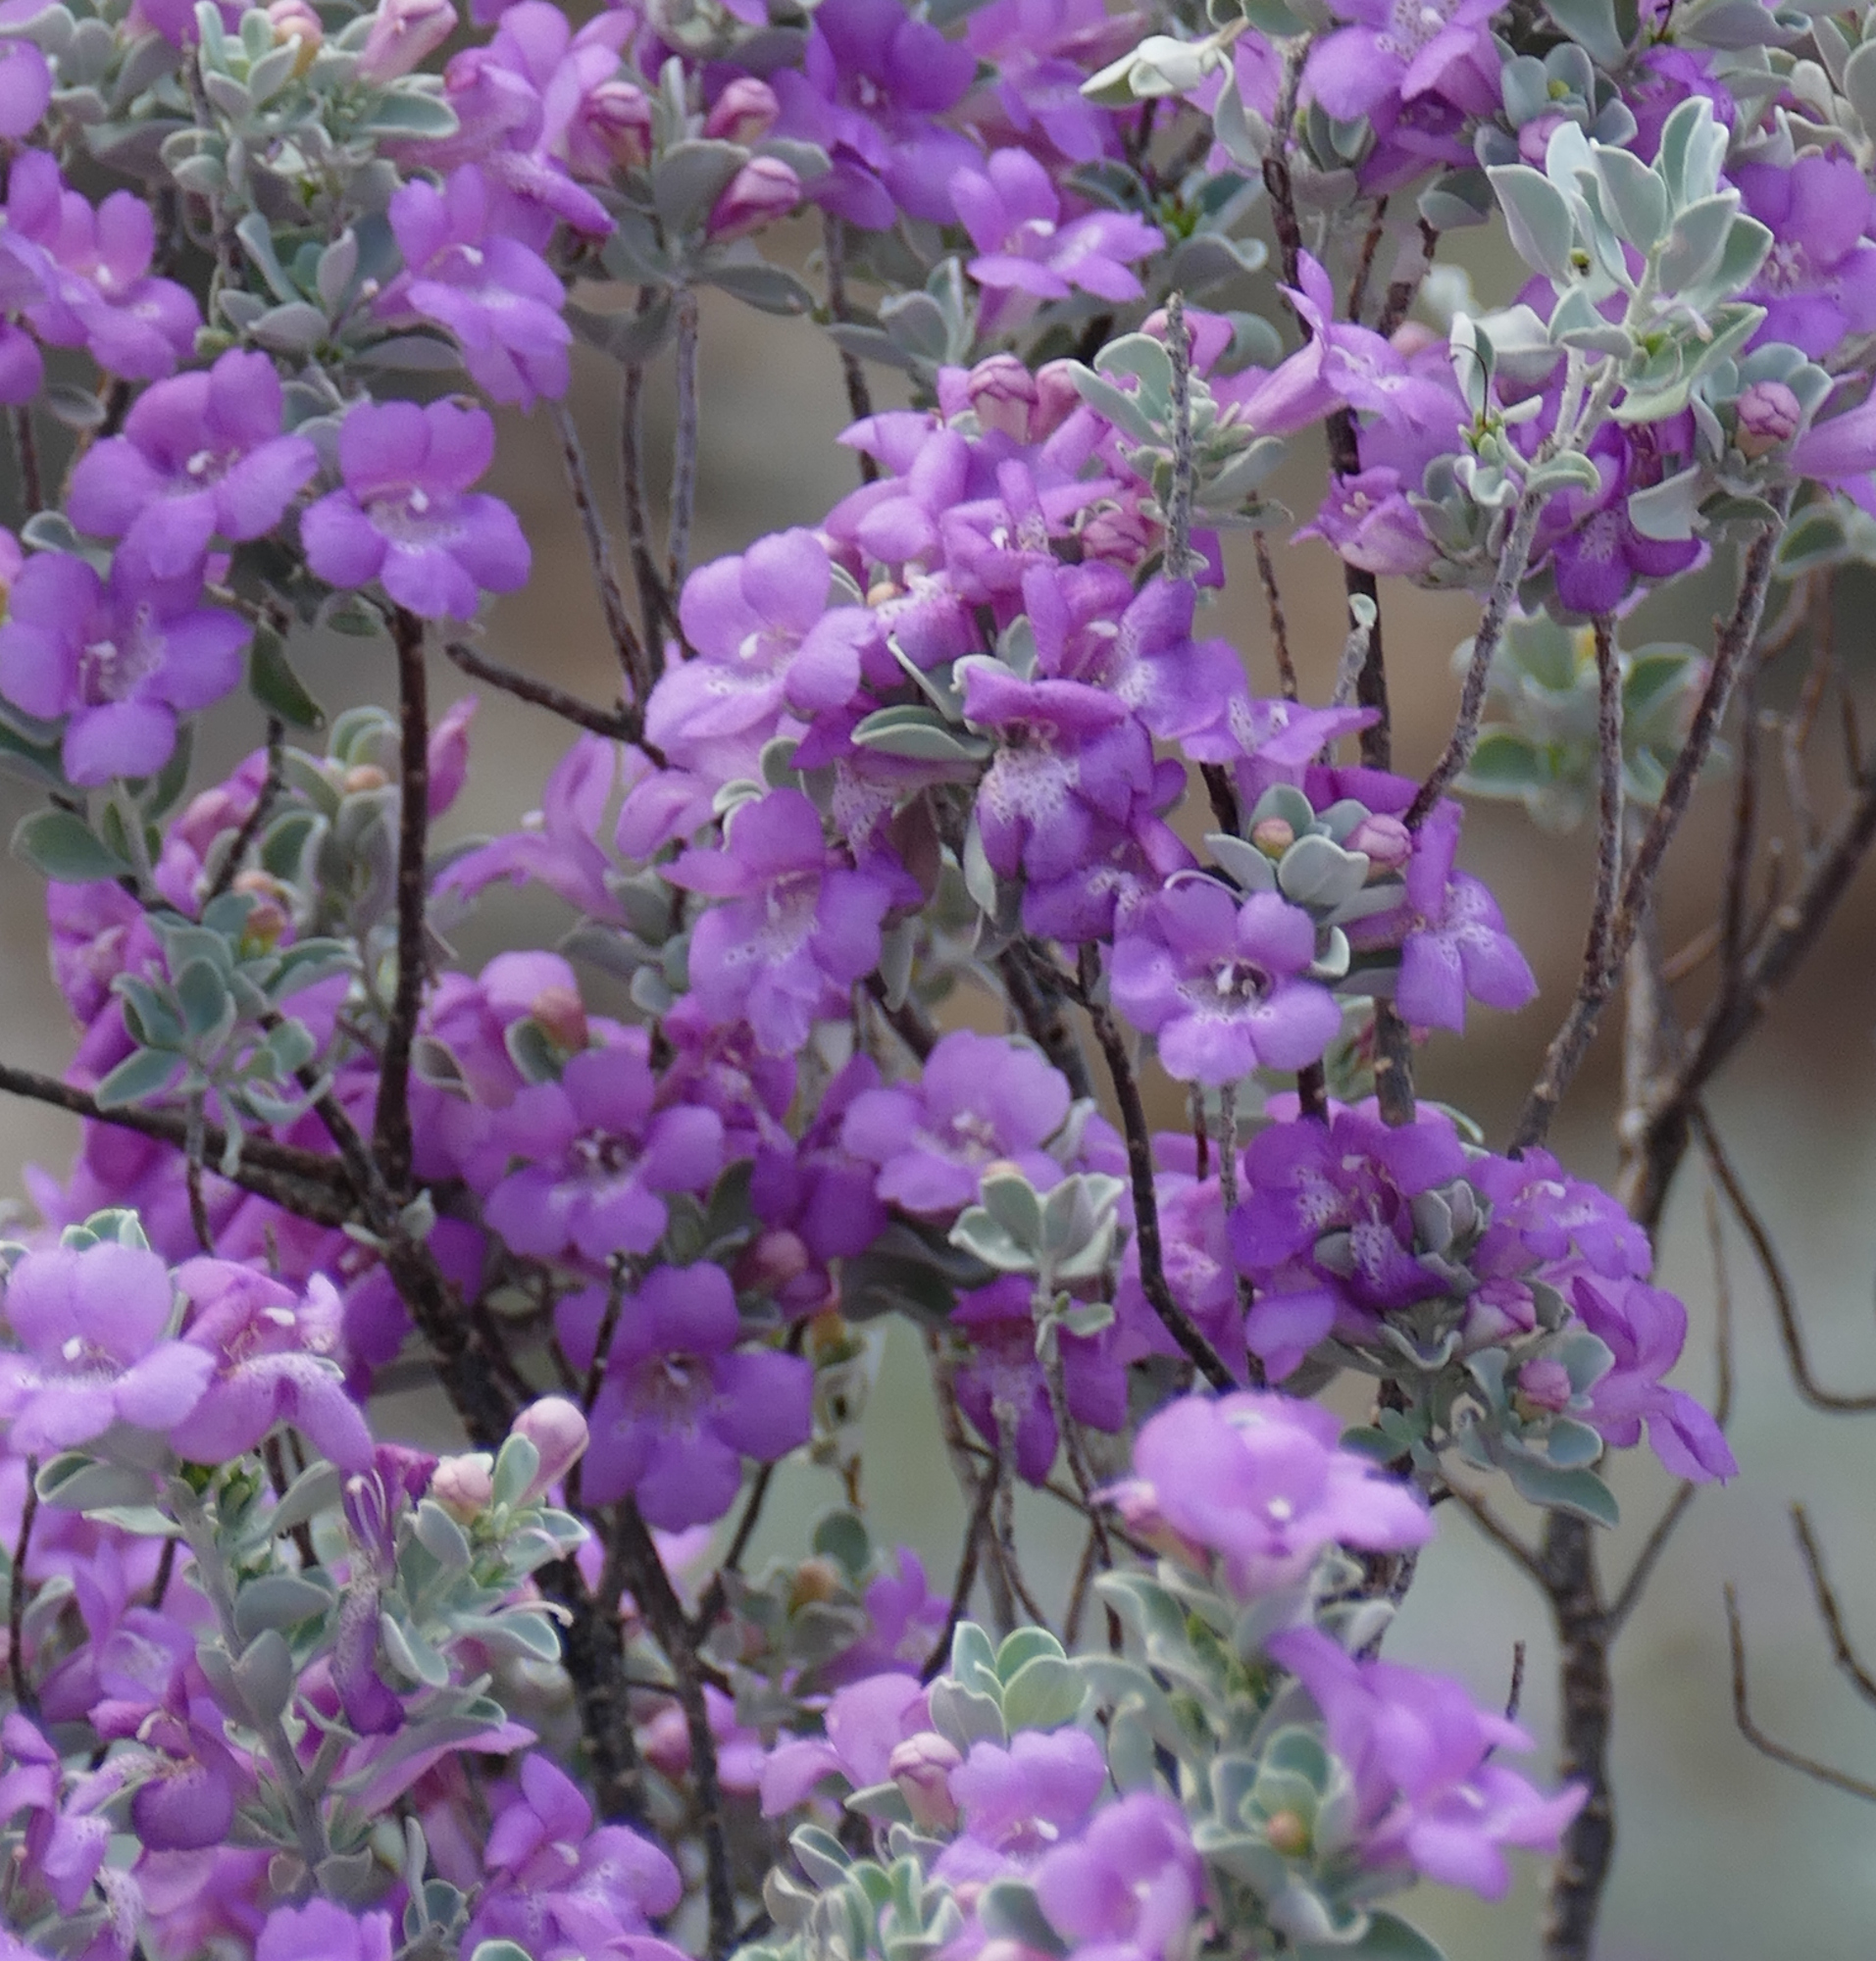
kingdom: Plantae
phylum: Tracheophyta
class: Magnoliopsida
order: Lamiales
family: Scrophulariaceae
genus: Leucophyllum
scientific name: Leucophyllum frutescens
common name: Texas silverleaf
